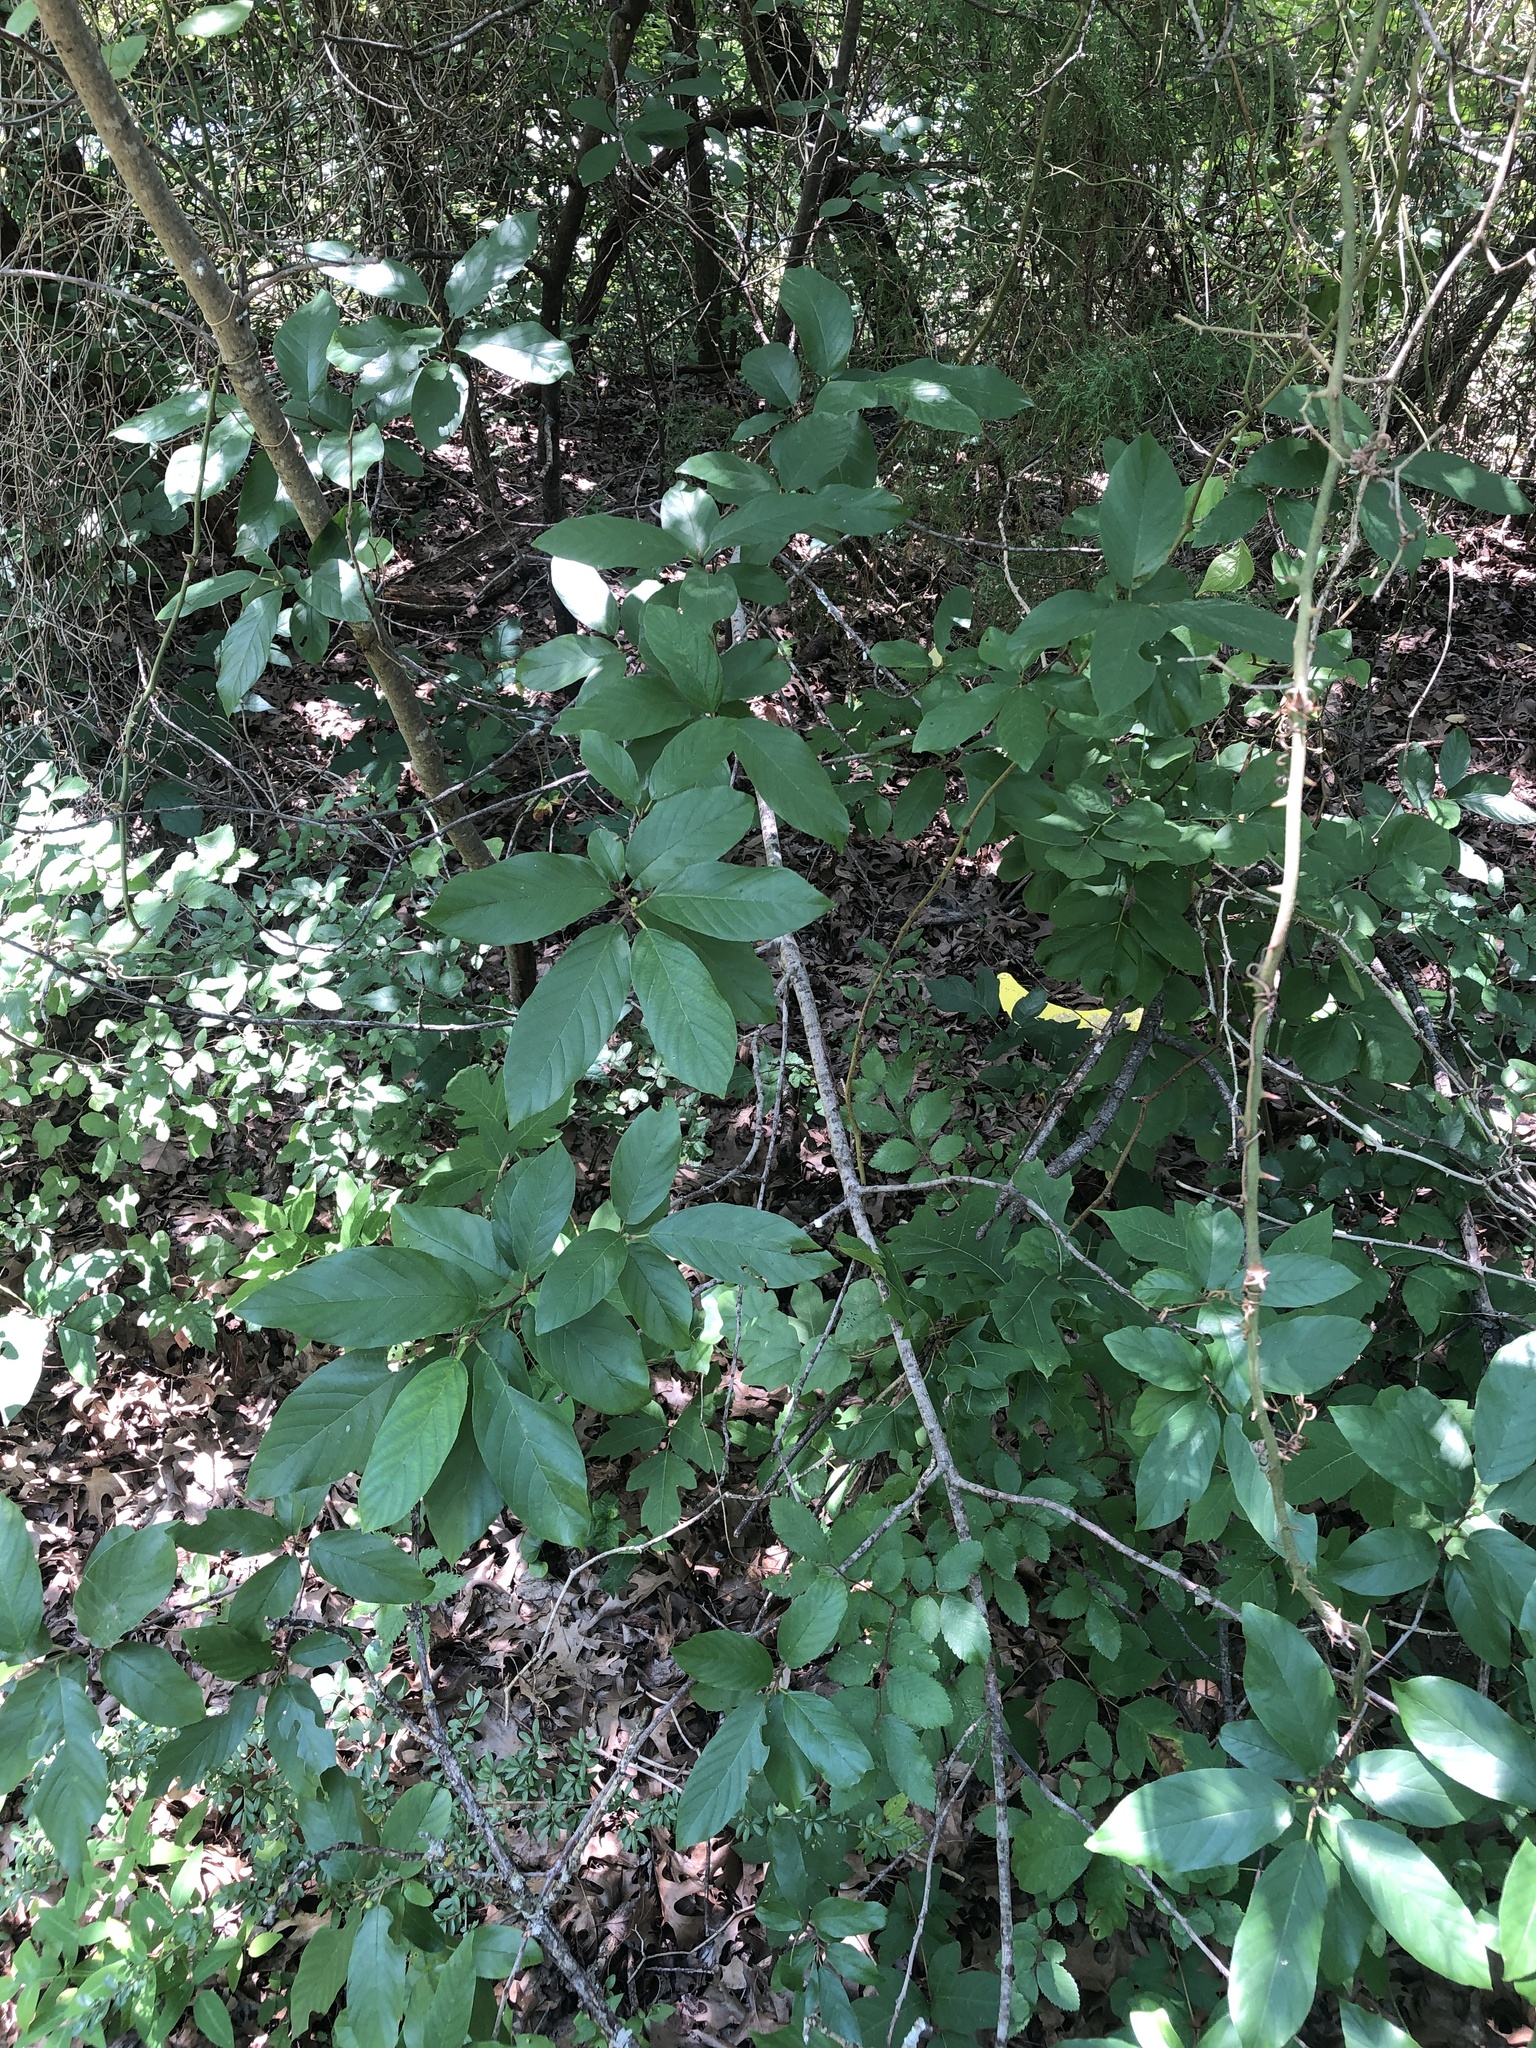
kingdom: Plantae
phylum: Tracheophyta
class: Magnoliopsida
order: Rosales
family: Rhamnaceae
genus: Frangula
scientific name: Frangula caroliniana
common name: Carolina buckthorn
